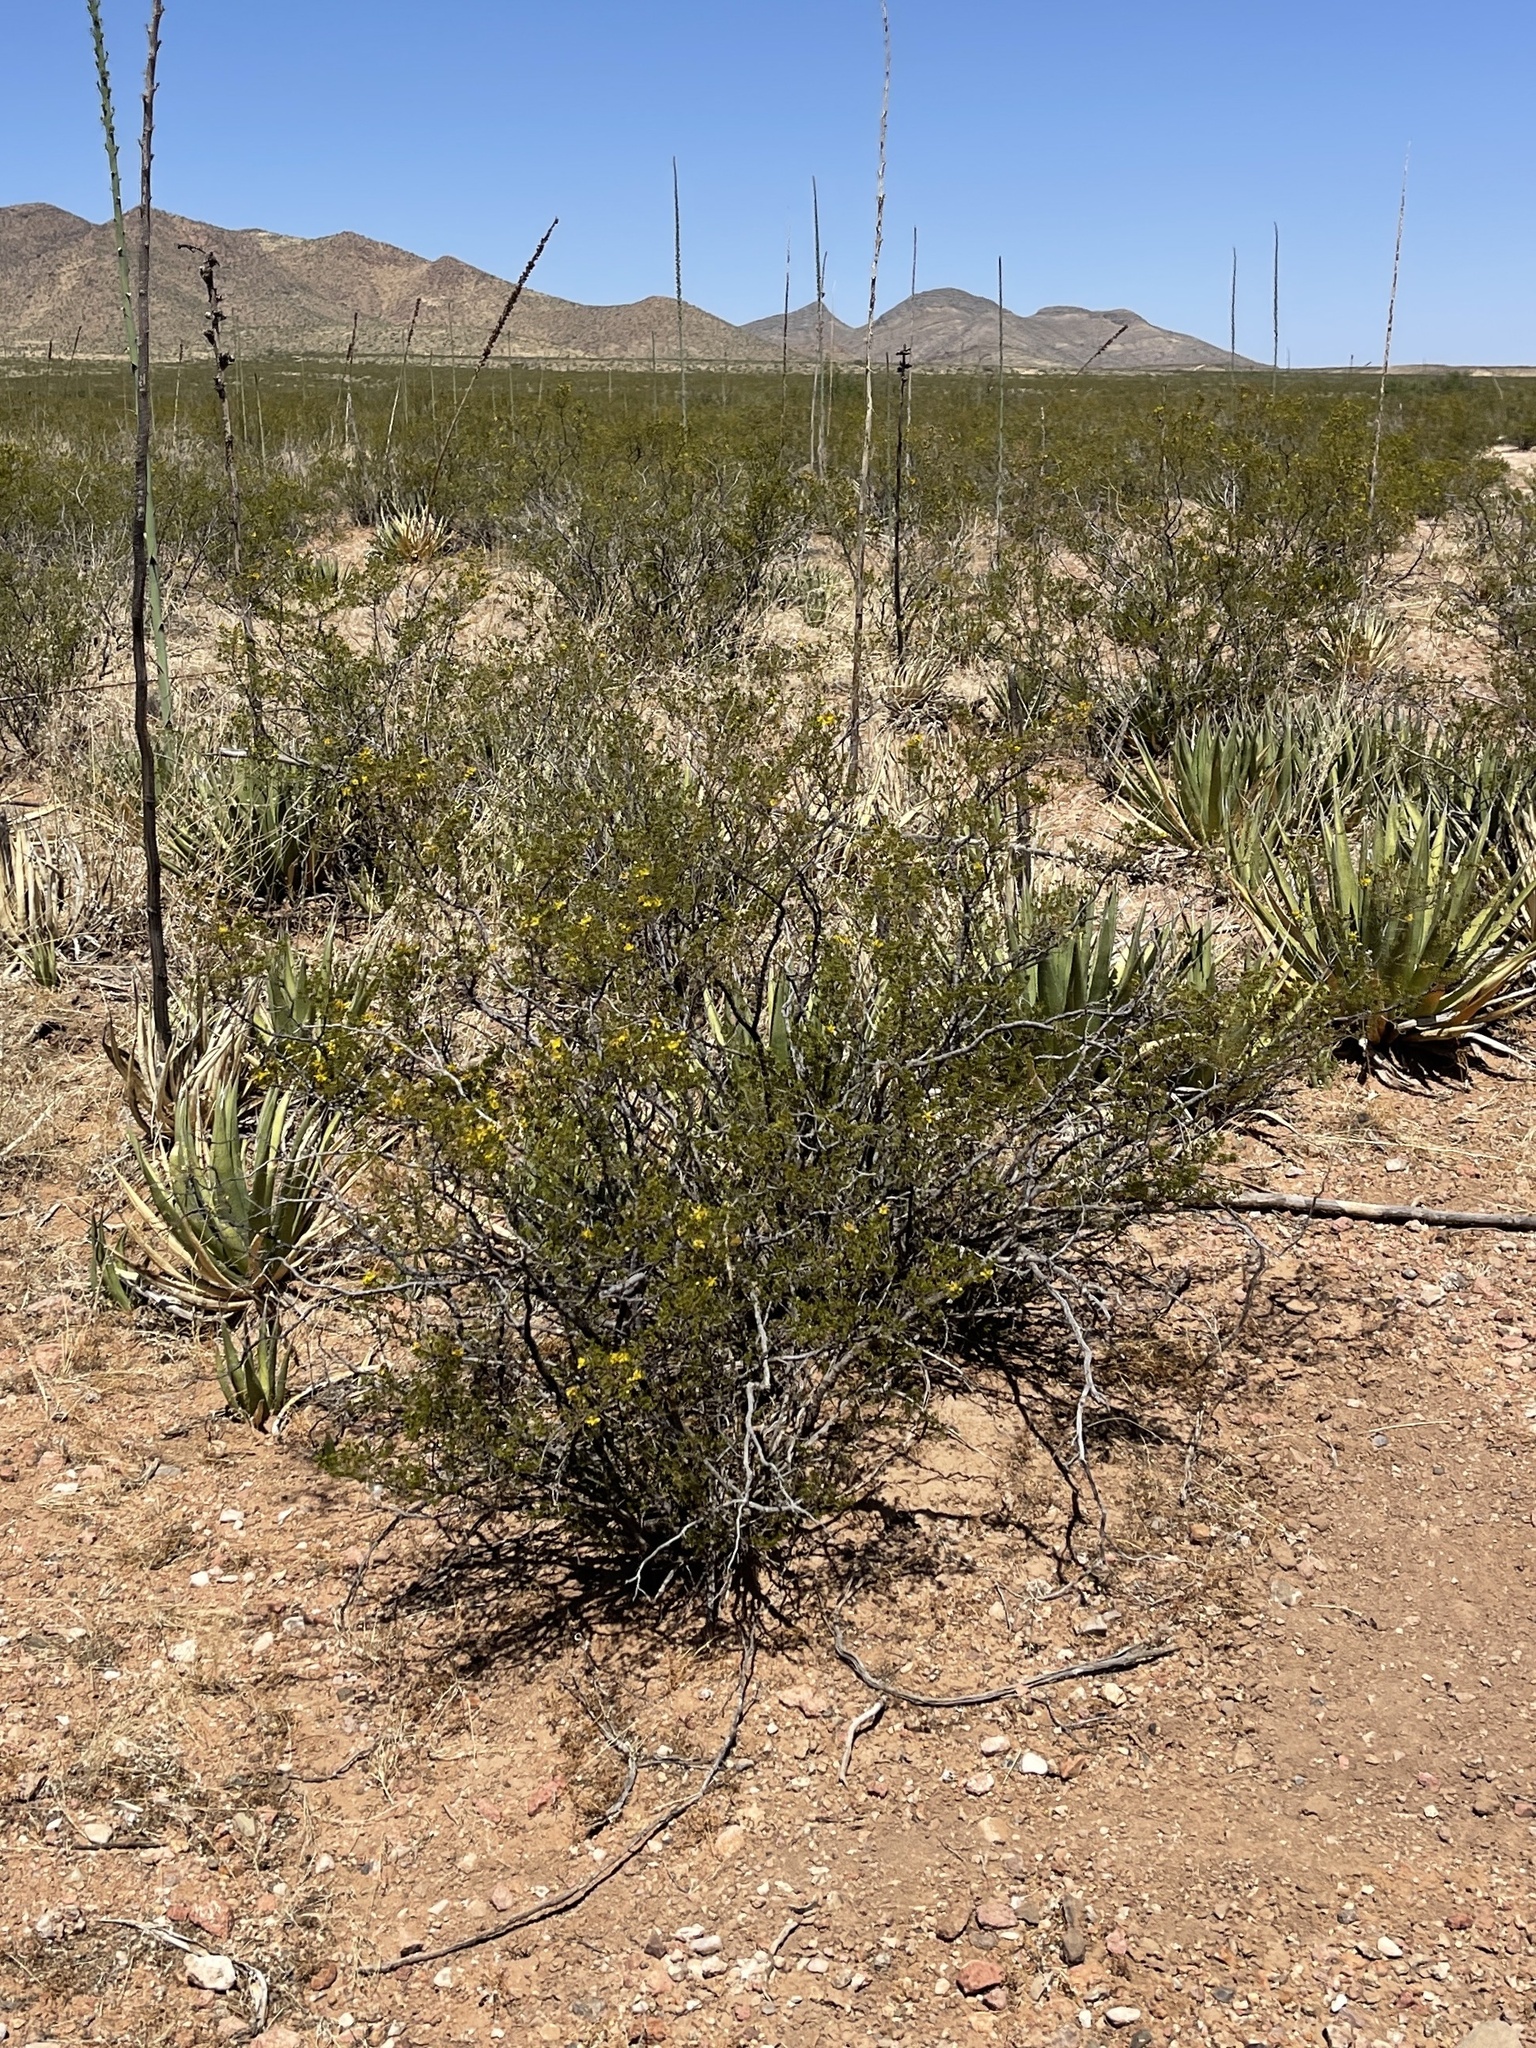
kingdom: Plantae
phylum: Tracheophyta
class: Magnoliopsida
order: Zygophyllales
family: Zygophyllaceae
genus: Larrea
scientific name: Larrea tridentata
